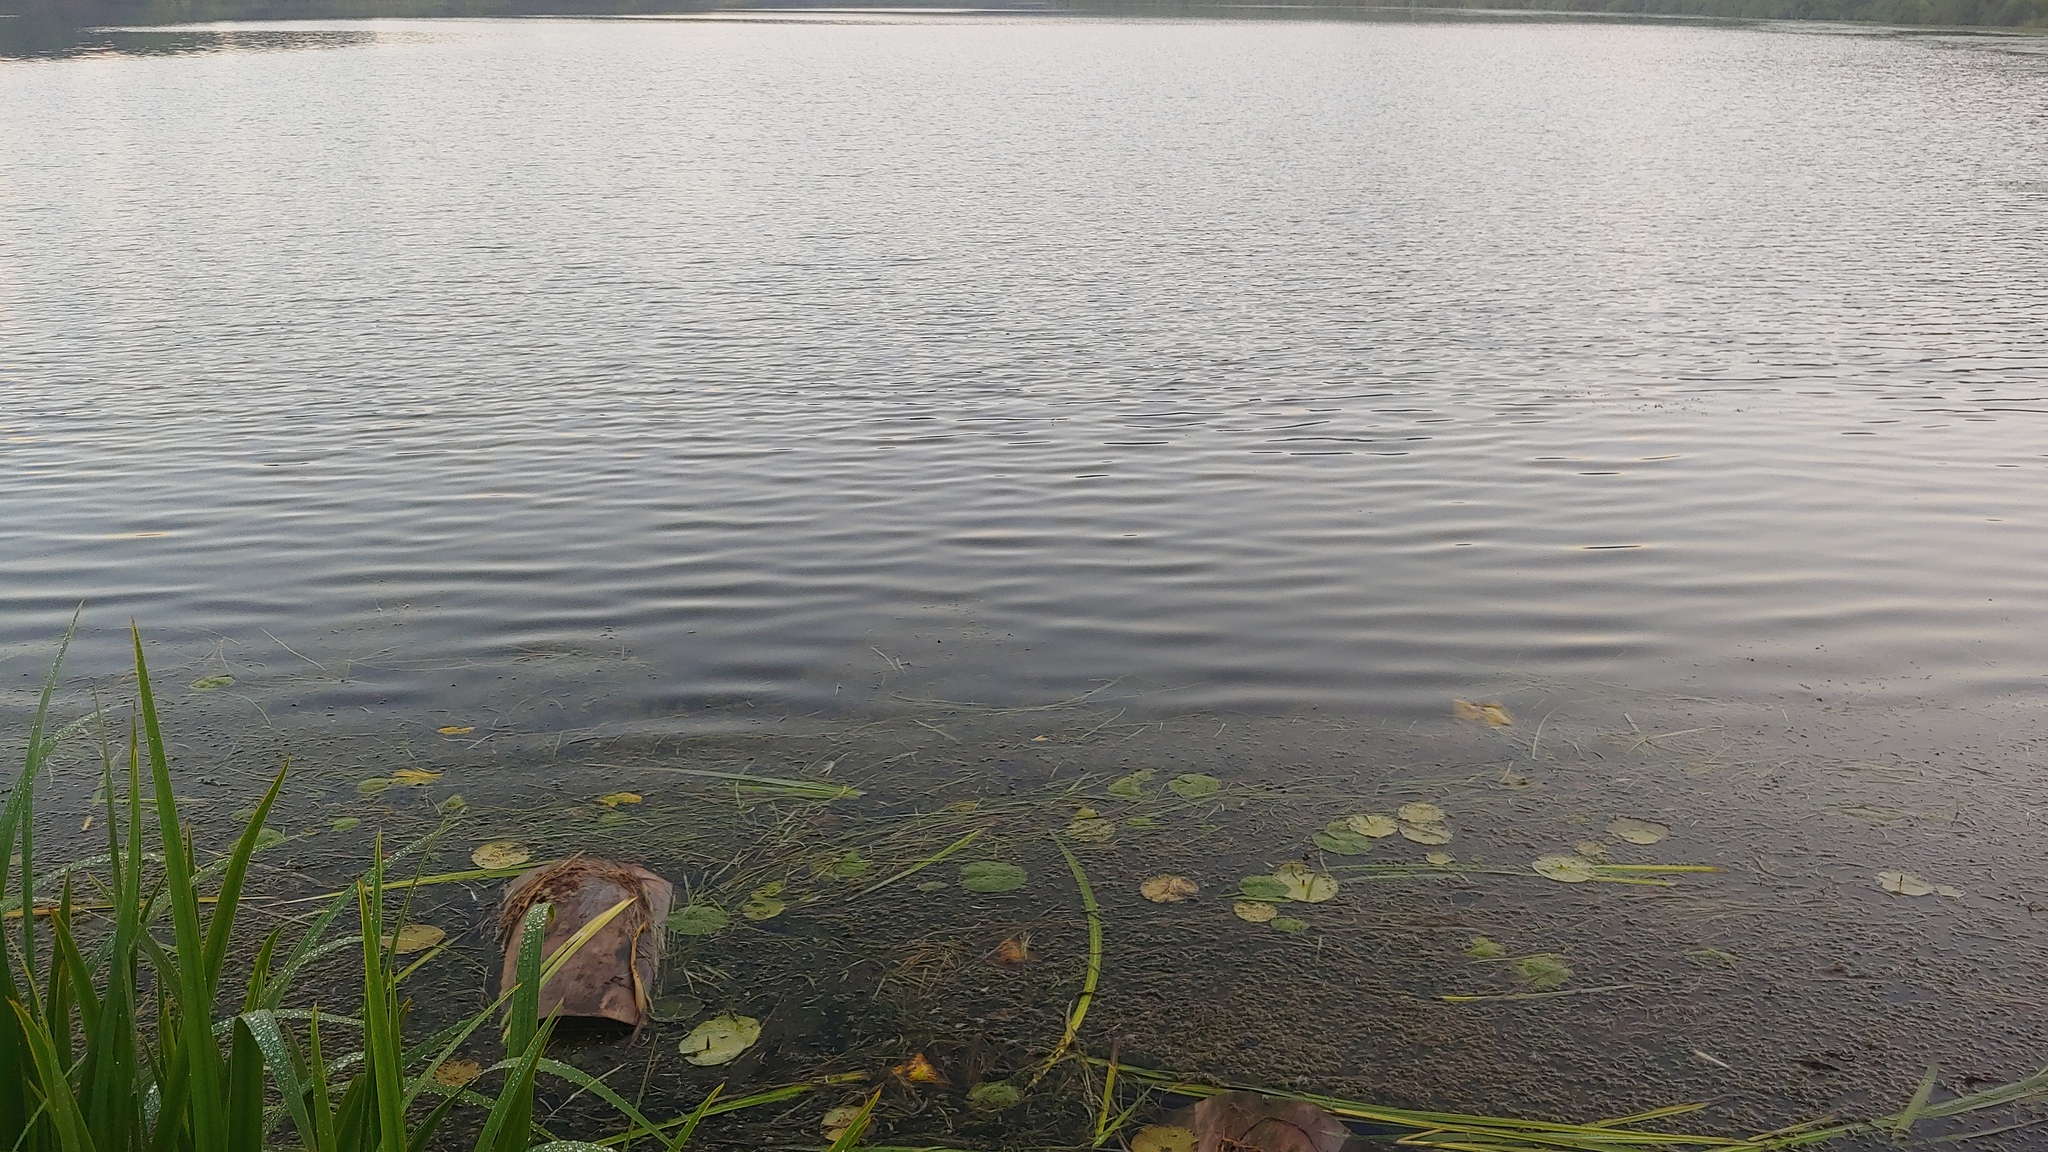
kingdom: Plantae
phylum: Tracheophyta
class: Liliopsida
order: Alismatales
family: Potamogetonaceae
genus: Potamogeton
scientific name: Potamogeton
